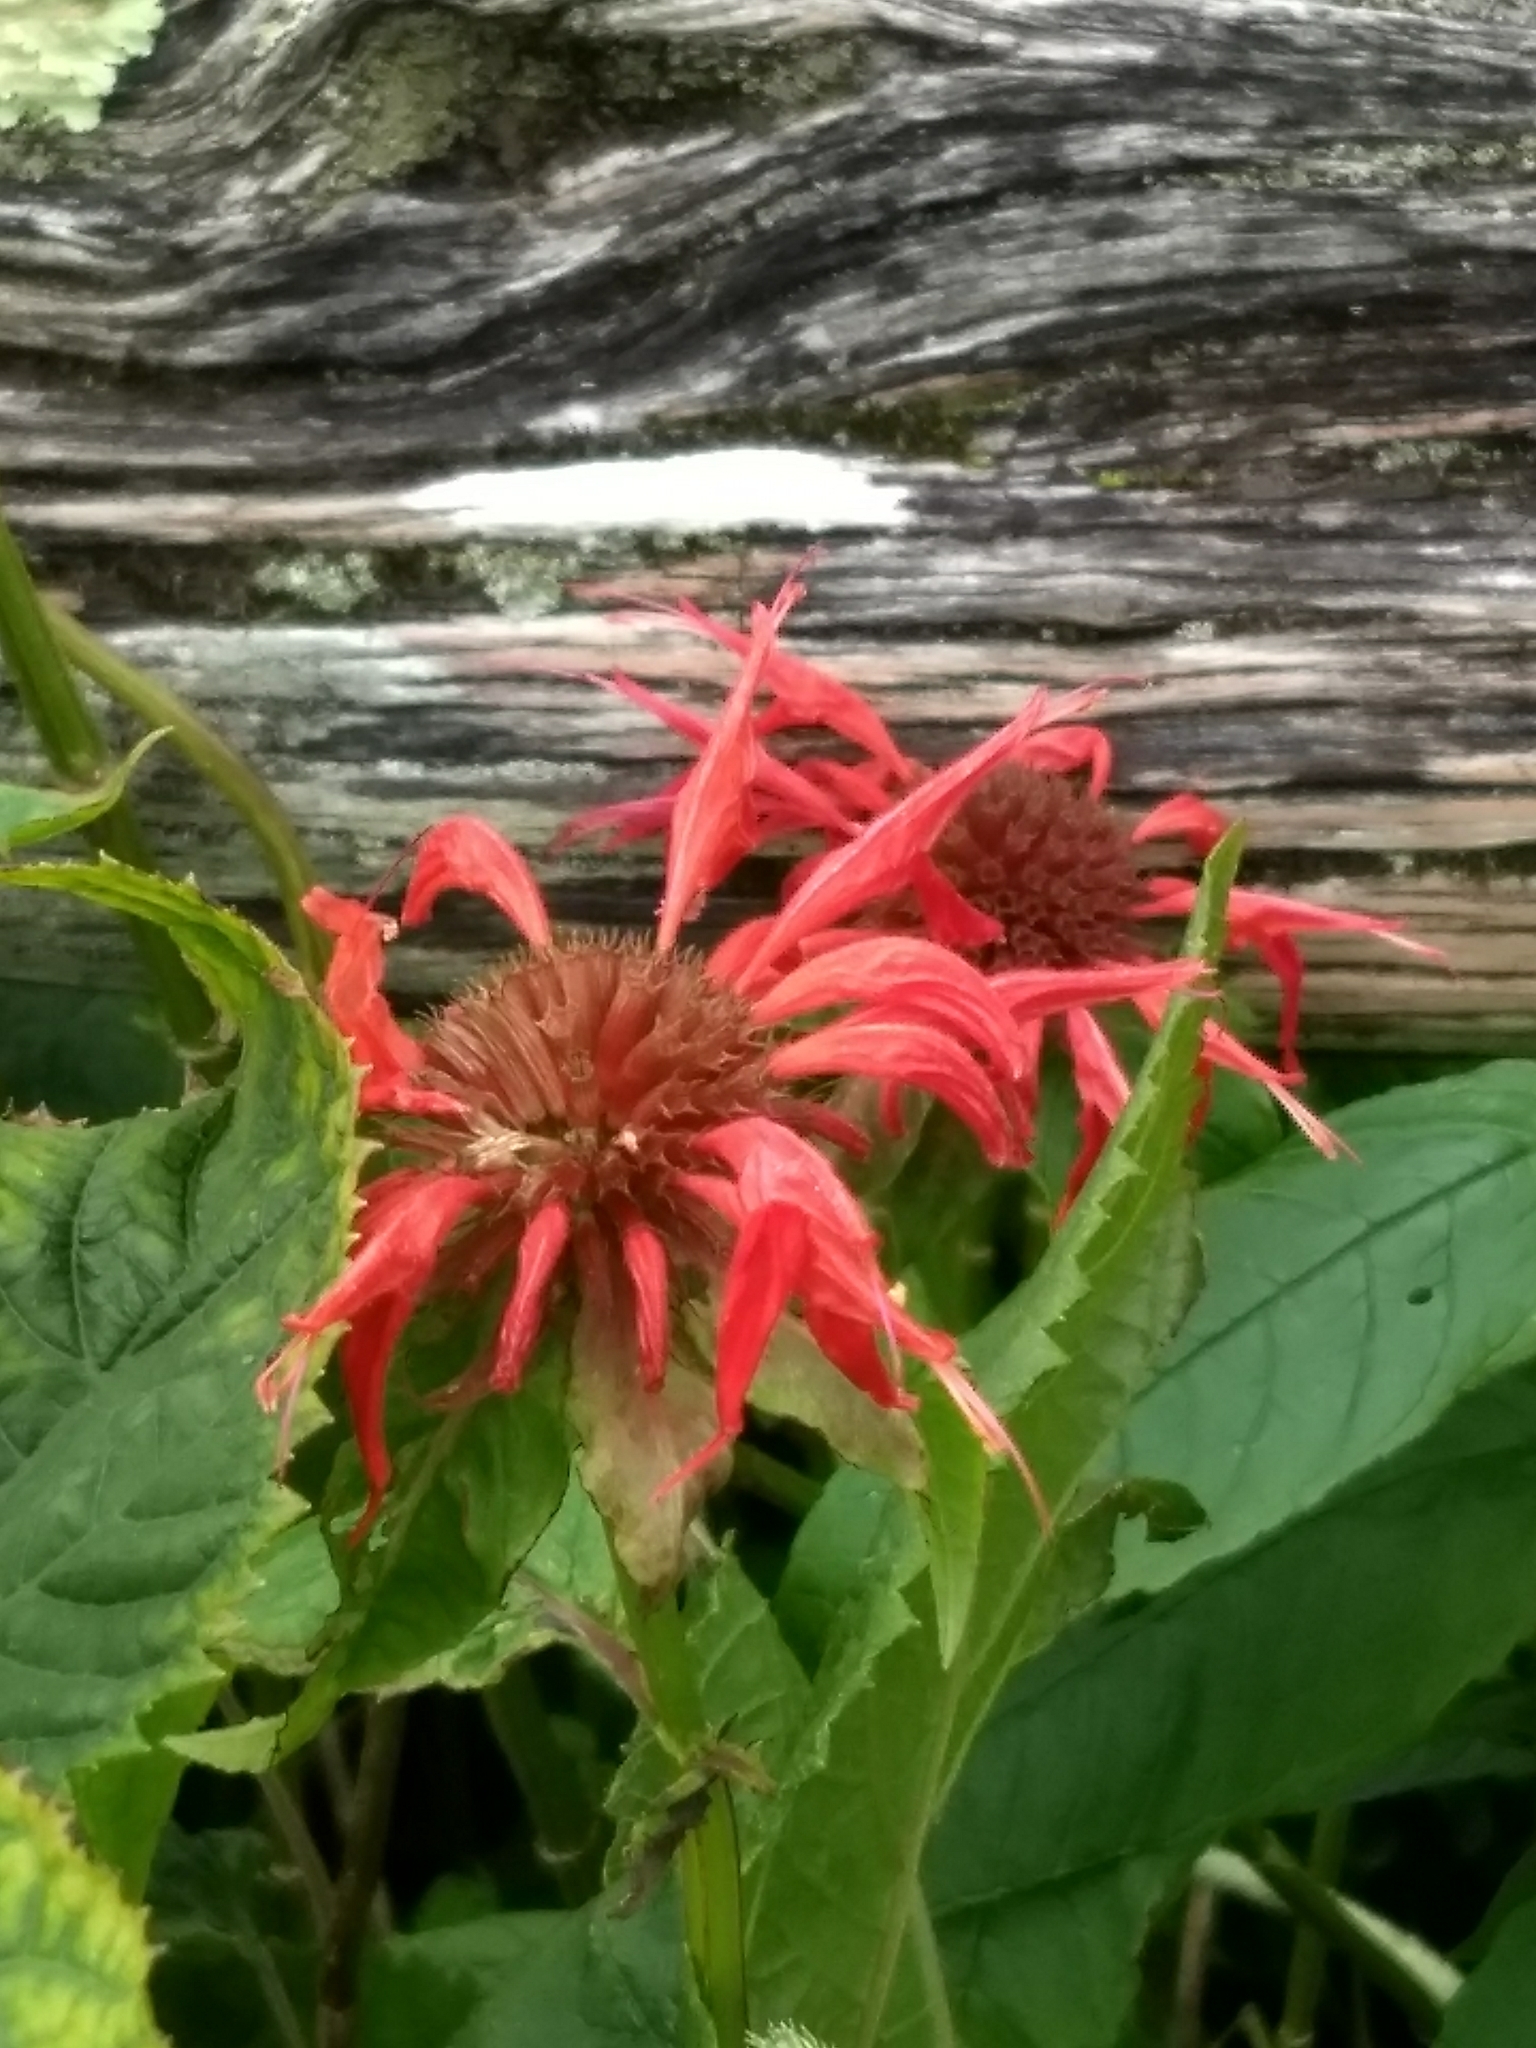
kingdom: Plantae
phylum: Tracheophyta
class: Magnoliopsida
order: Lamiales
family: Lamiaceae
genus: Monarda
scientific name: Monarda didyma
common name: Beebalm
